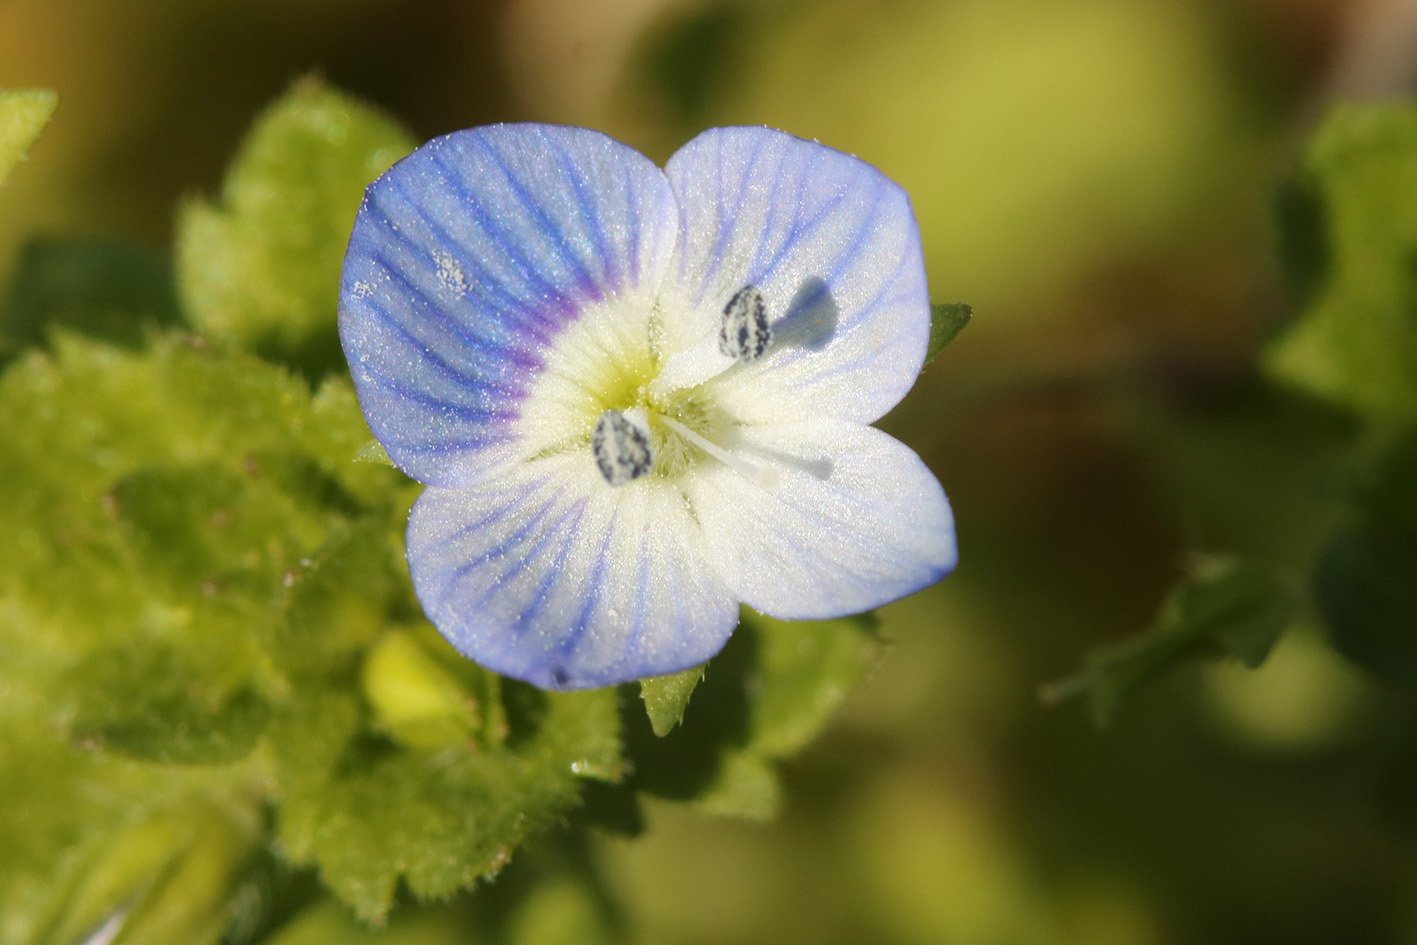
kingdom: Plantae
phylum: Tracheophyta
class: Magnoliopsida
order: Lamiales
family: Plantaginaceae
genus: Veronica
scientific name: Veronica persica
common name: Common field-speedwell
